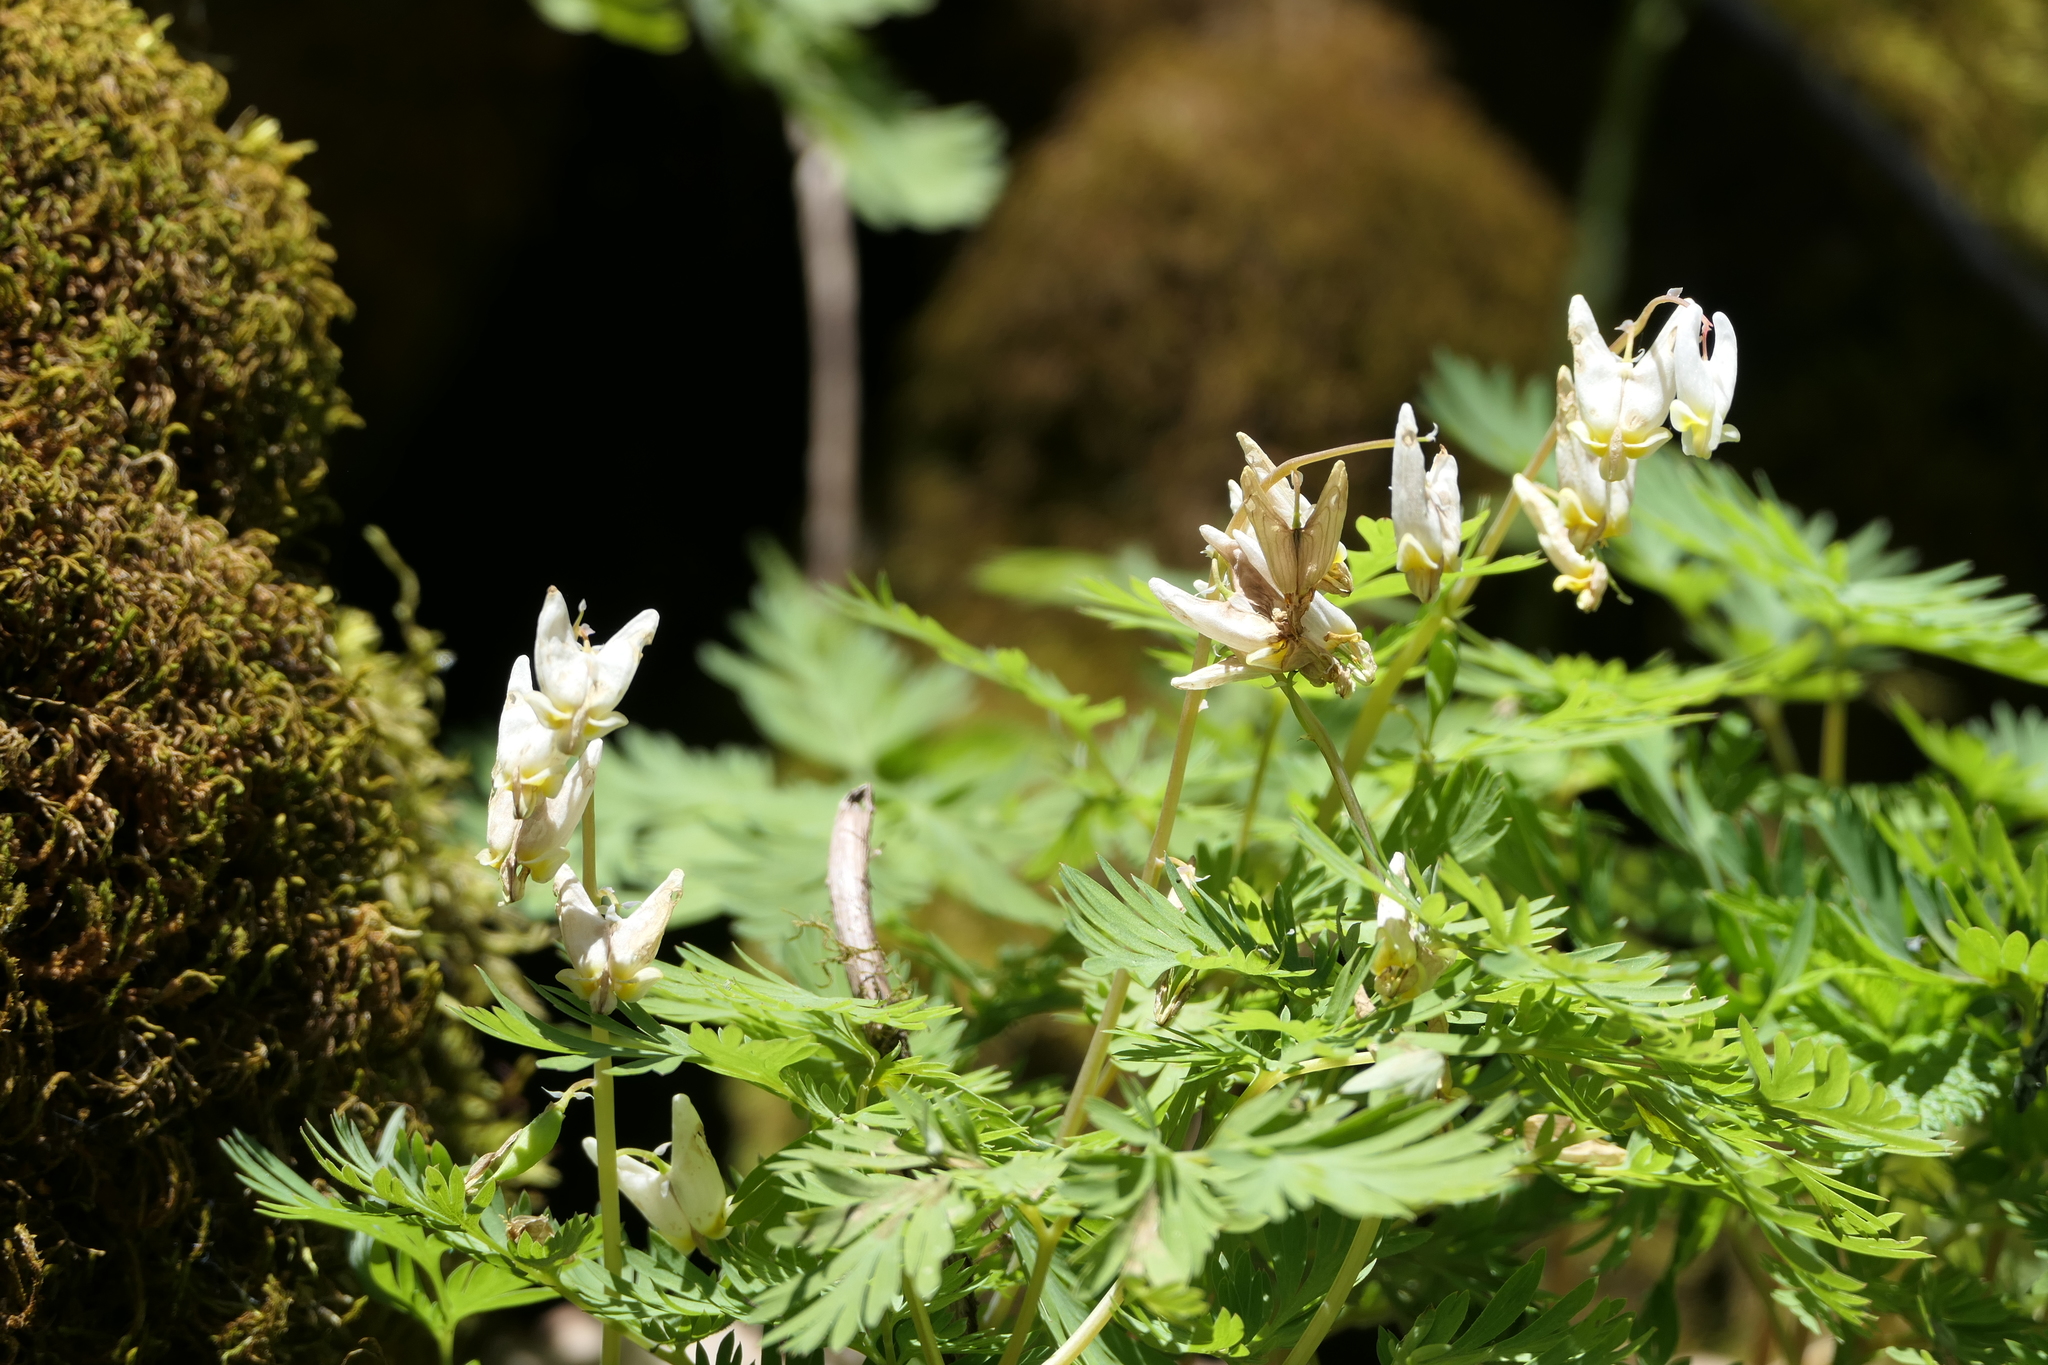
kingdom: Plantae
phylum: Tracheophyta
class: Magnoliopsida
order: Ranunculales
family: Papaveraceae
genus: Dicentra
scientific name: Dicentra cucullaria
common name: Dutchman's breeches
